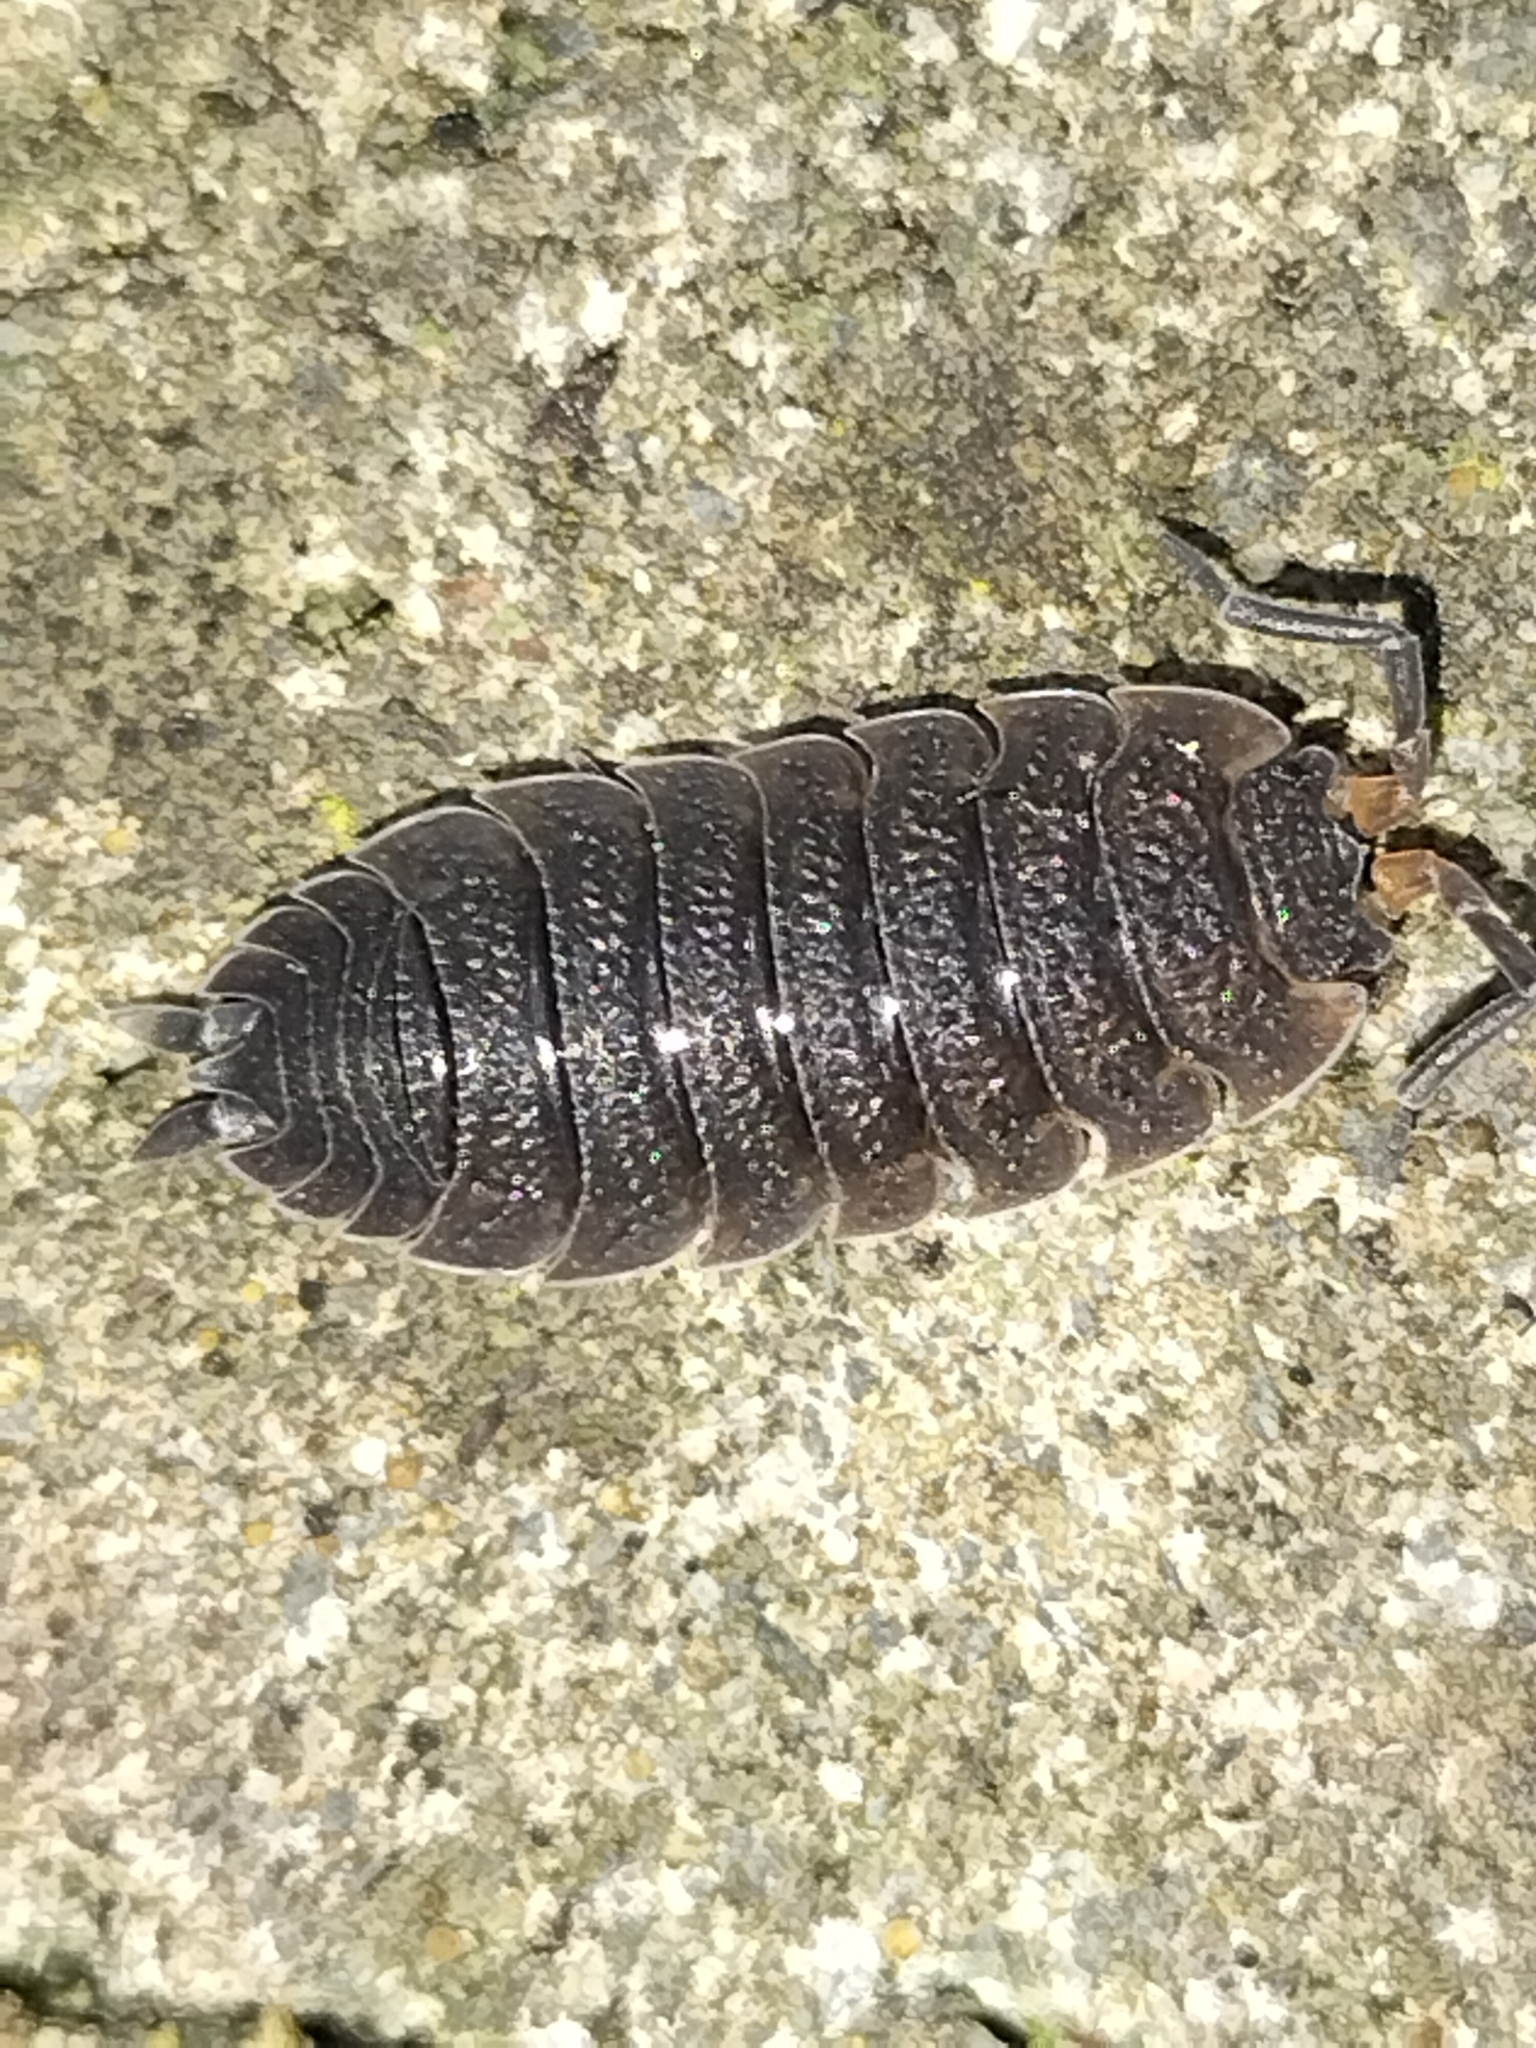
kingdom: Animalia
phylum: Arthropoda
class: Malacostraca
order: Isopoda
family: Porcellionidae
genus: Porcellio
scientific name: Porcellio scaber
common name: Common rough woodlouse
